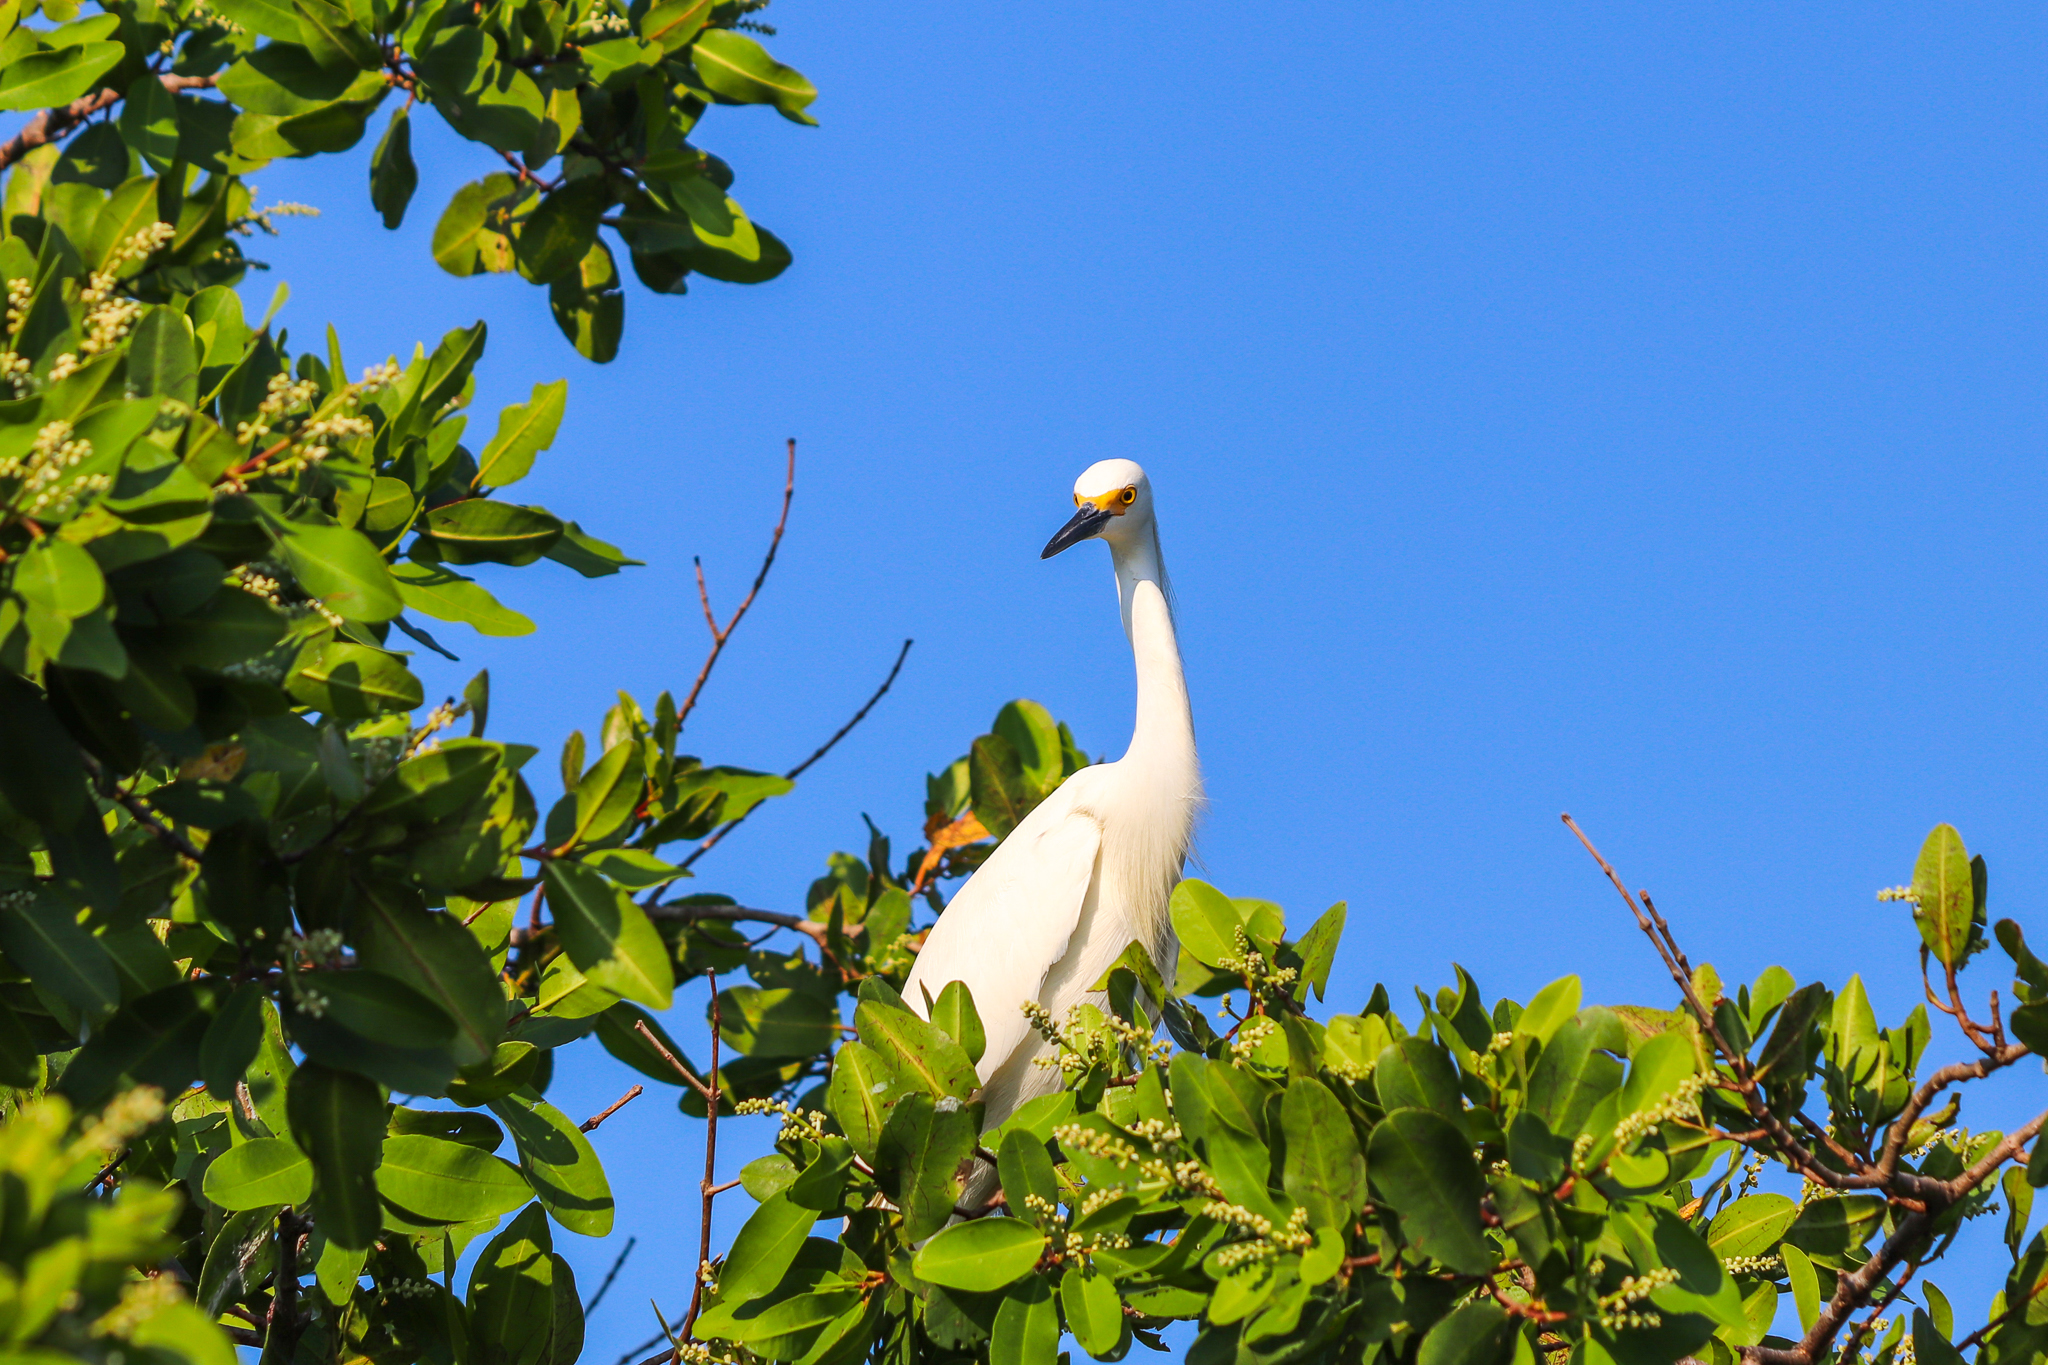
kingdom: Animalia
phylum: Chordata
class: Aves
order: Pelecaniformes
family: Ardeidae
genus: Egretta
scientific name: Egretta thula
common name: Snowy egret
